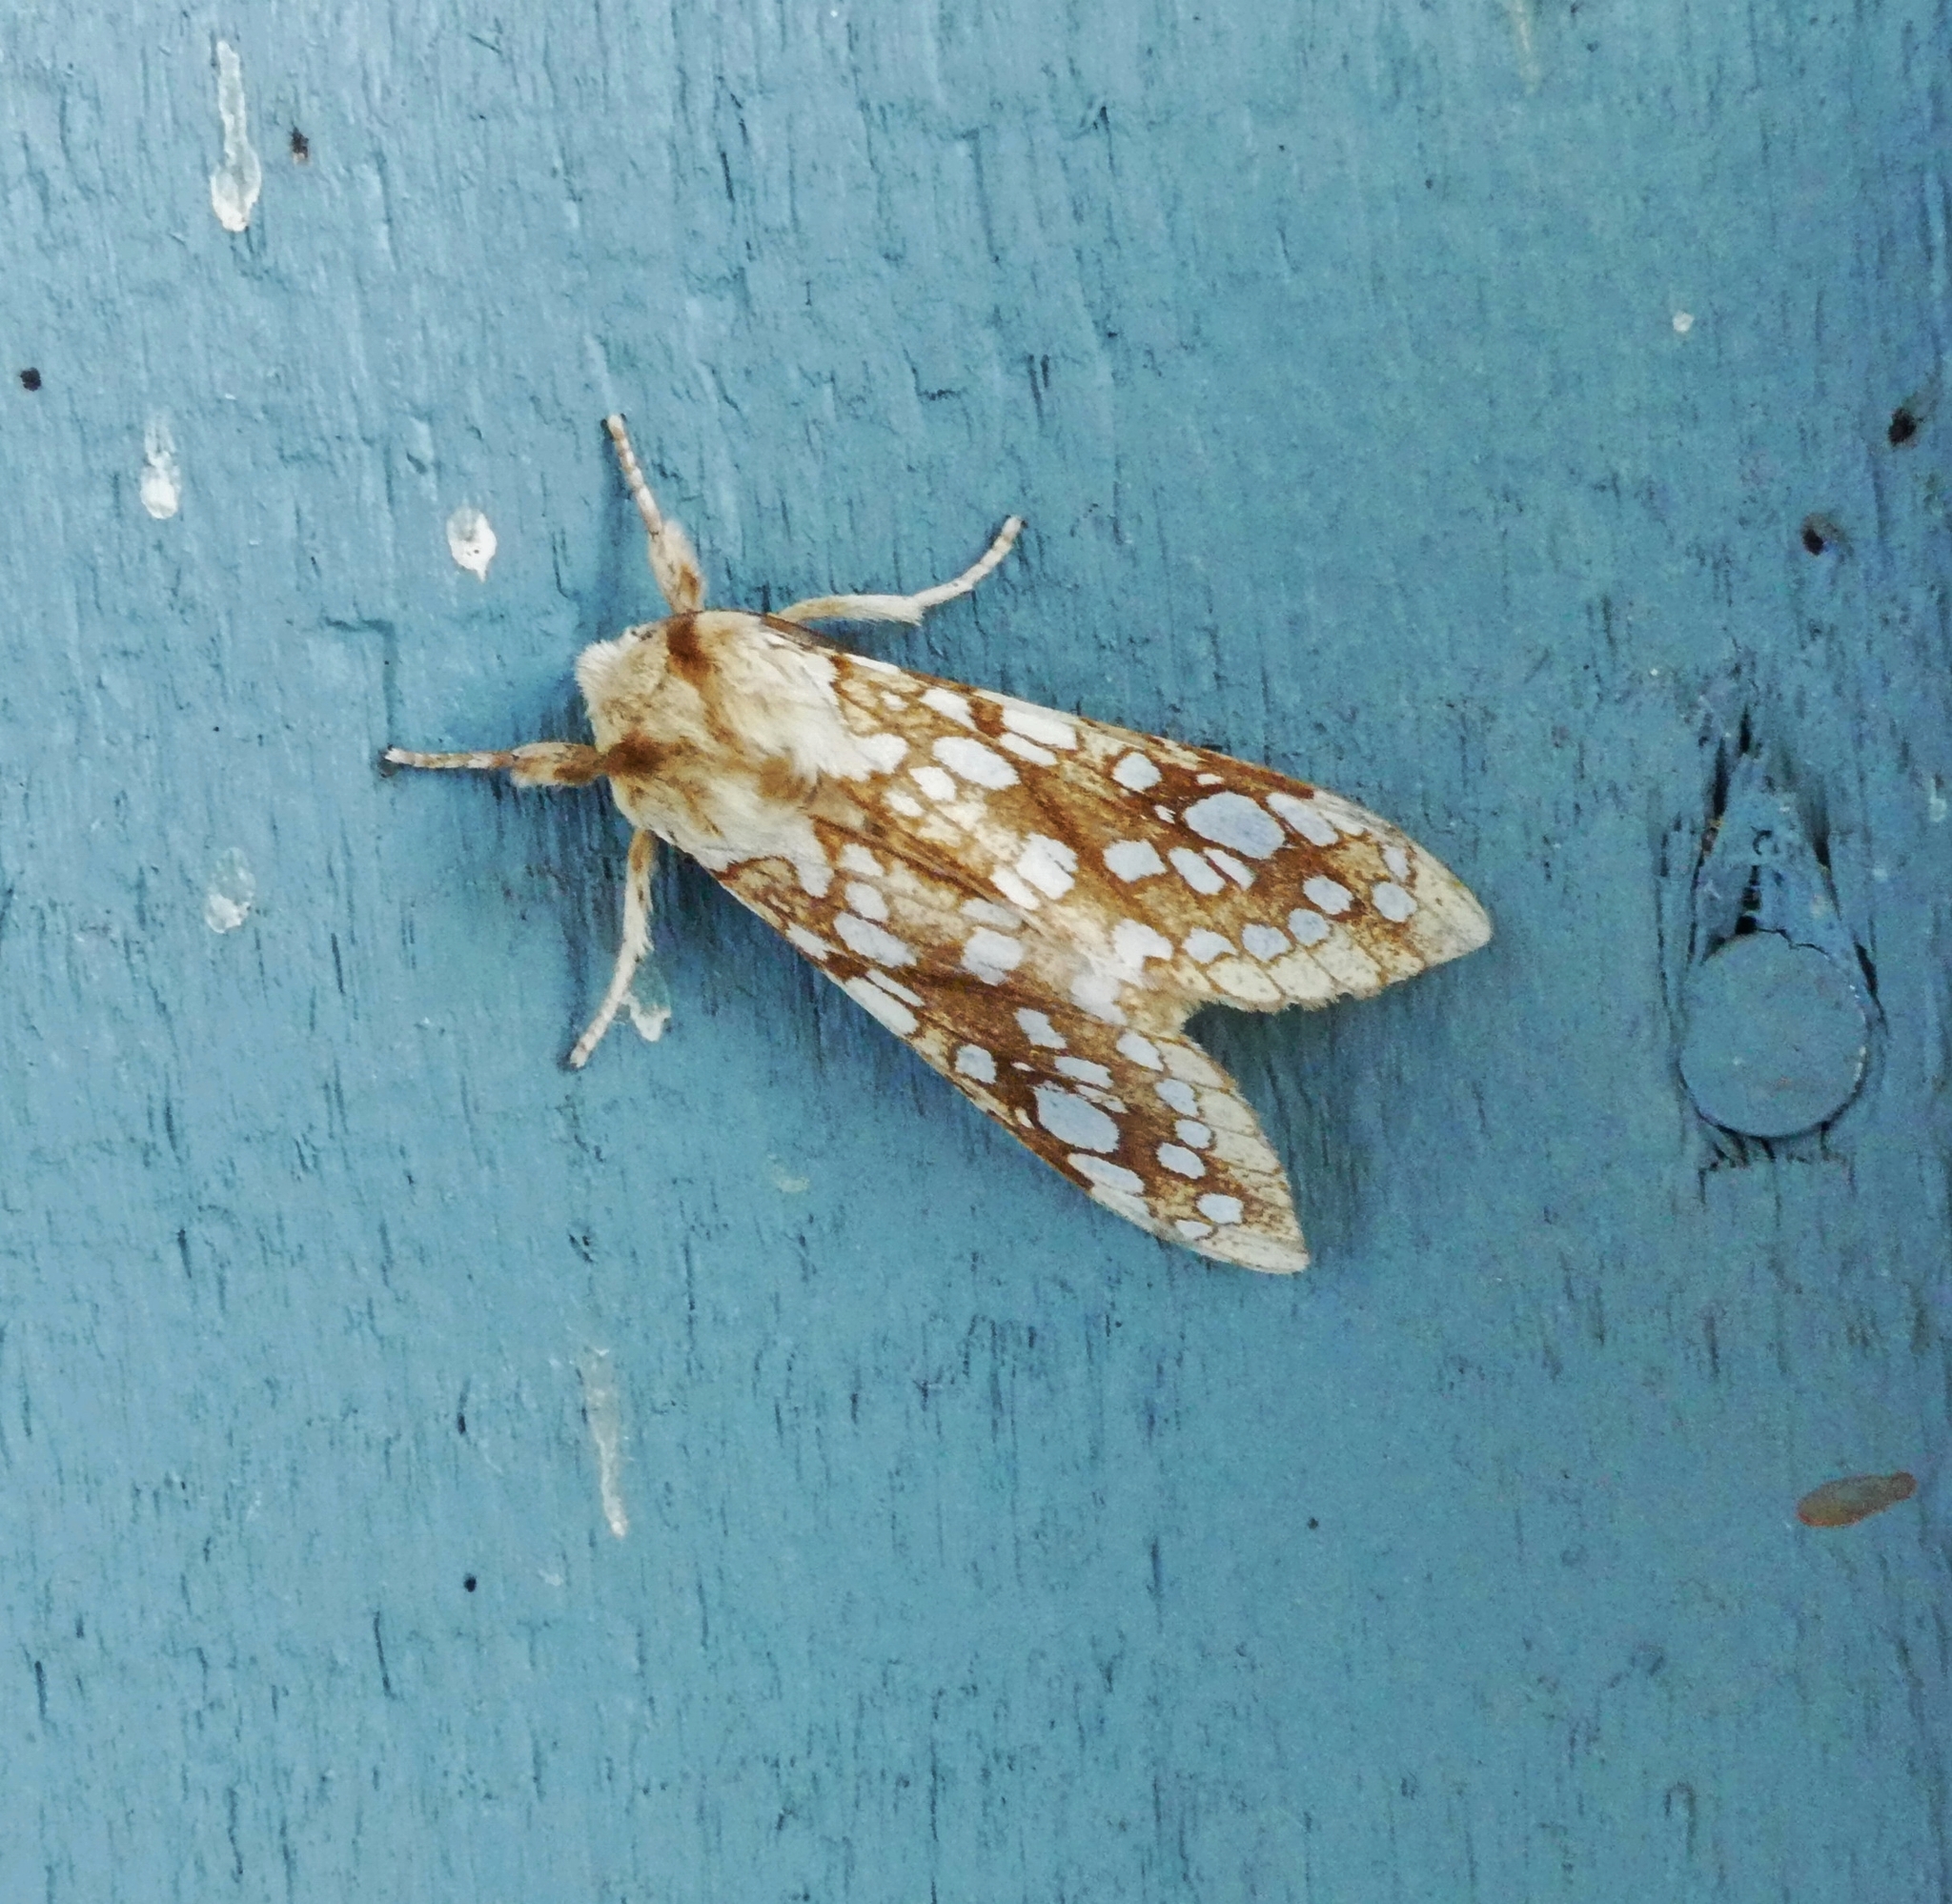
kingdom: Animalia
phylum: Arthropoda
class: Insecta
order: Lepidoptera
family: Erebidae
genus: Lophocampa
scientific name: Lophocampa caryae
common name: Hickory tussock moth
